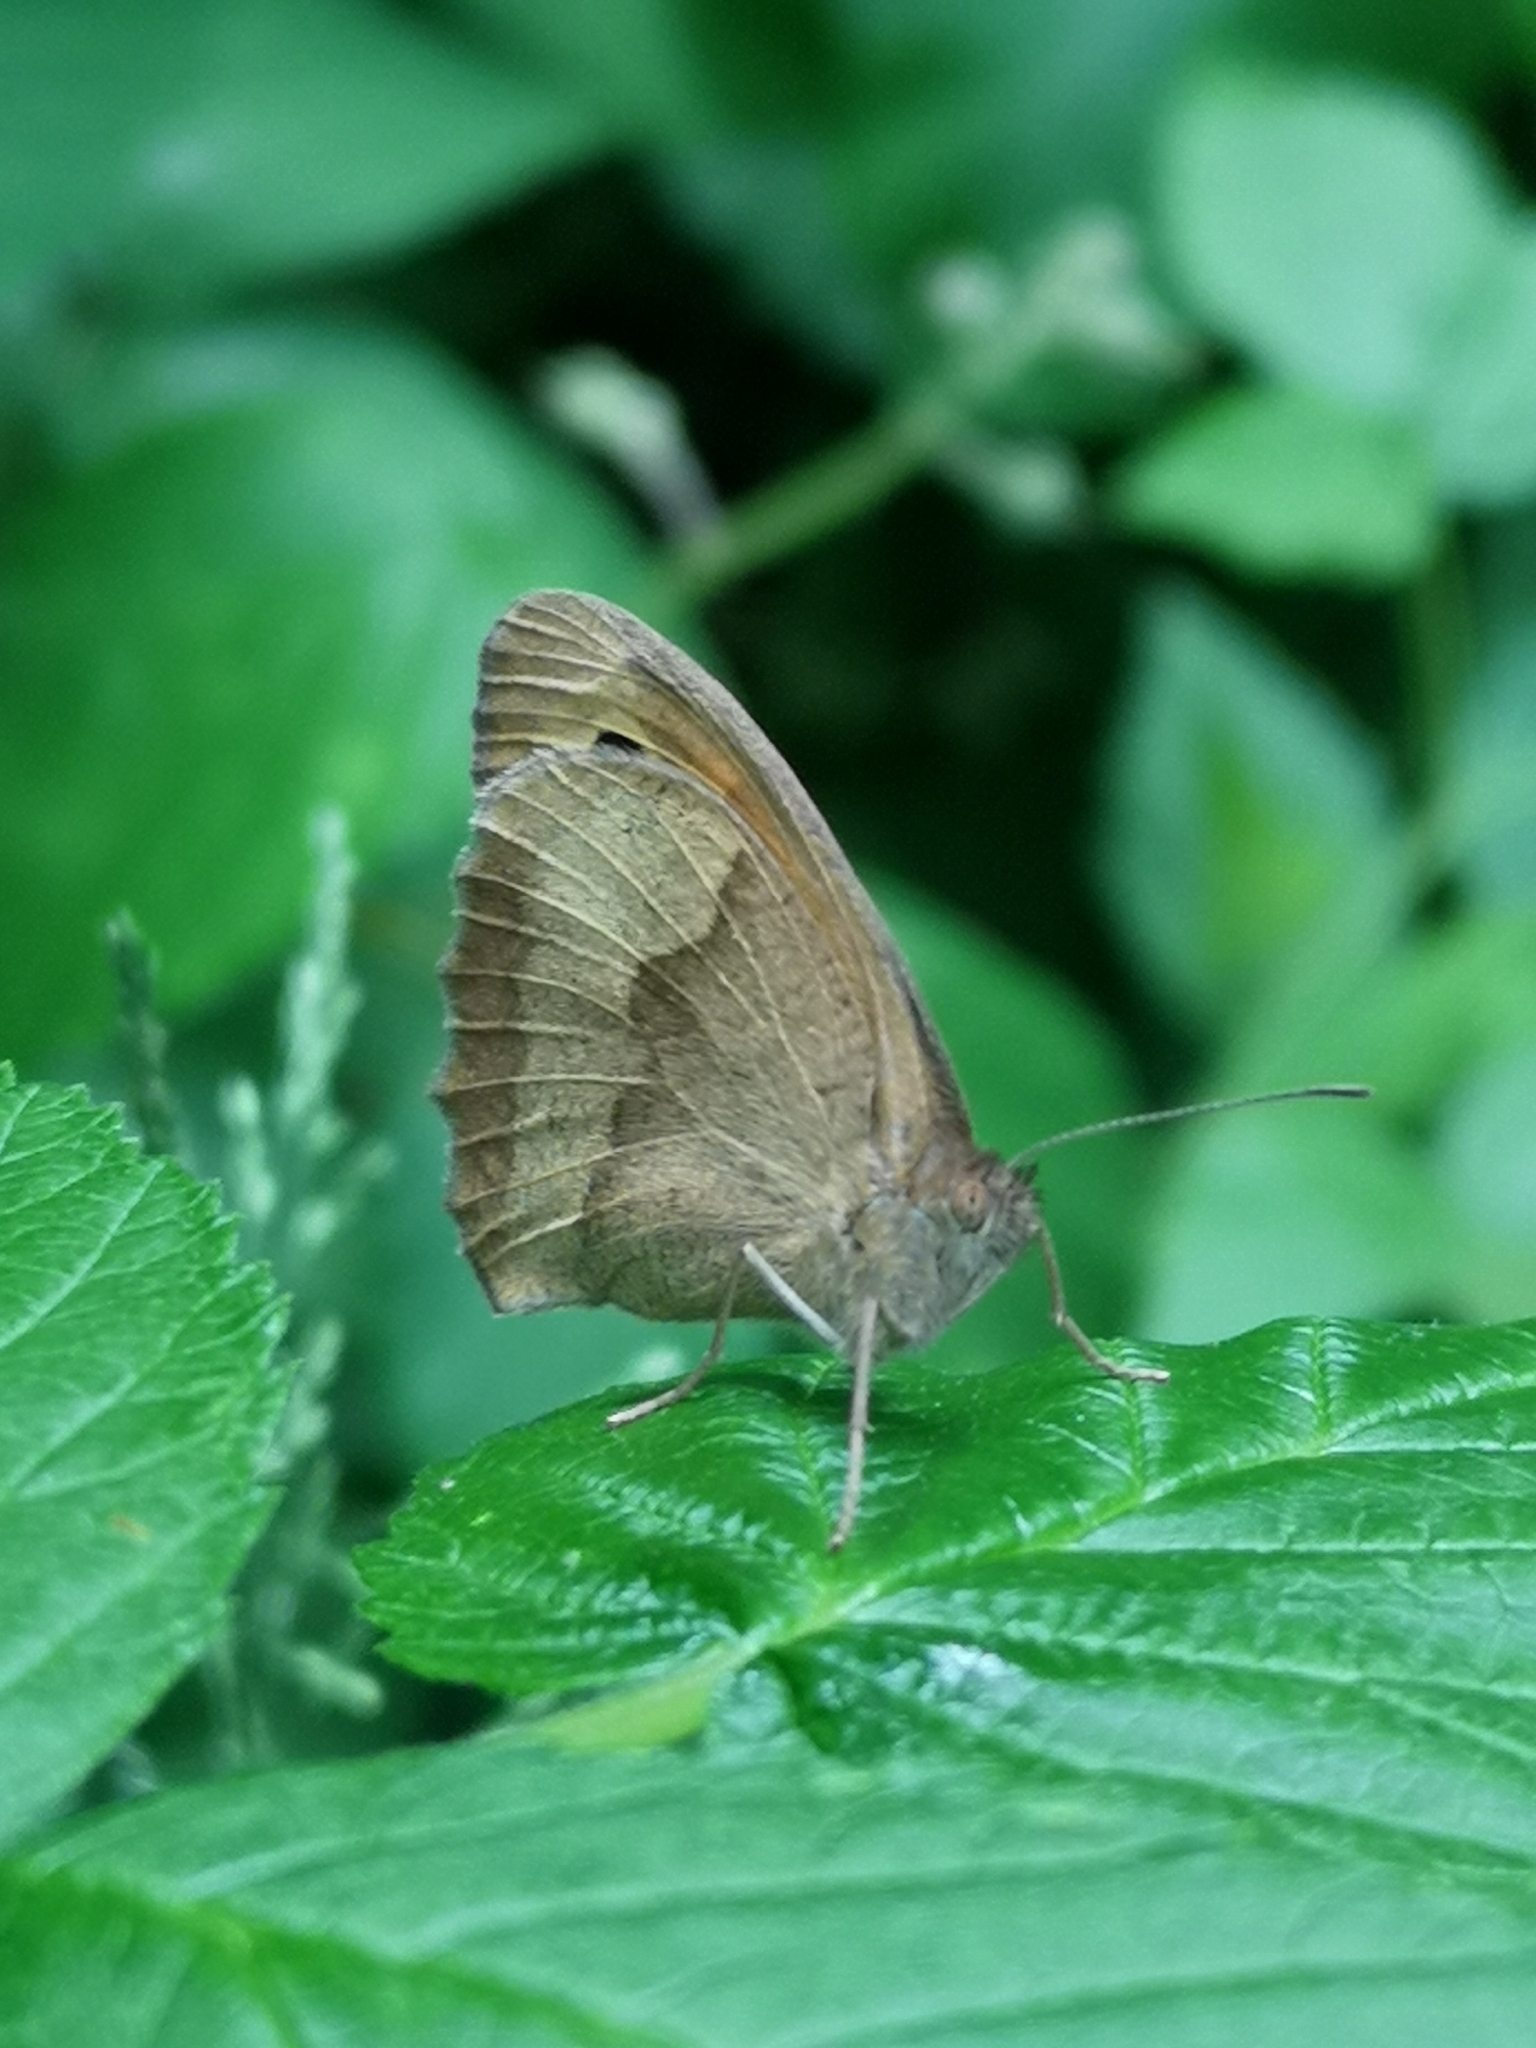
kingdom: Animalia
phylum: Arthropoda
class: Insecta
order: Lepidoptera
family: Nymphalidae
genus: Maniola
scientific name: Maniola jurtina
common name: Meadow brown
